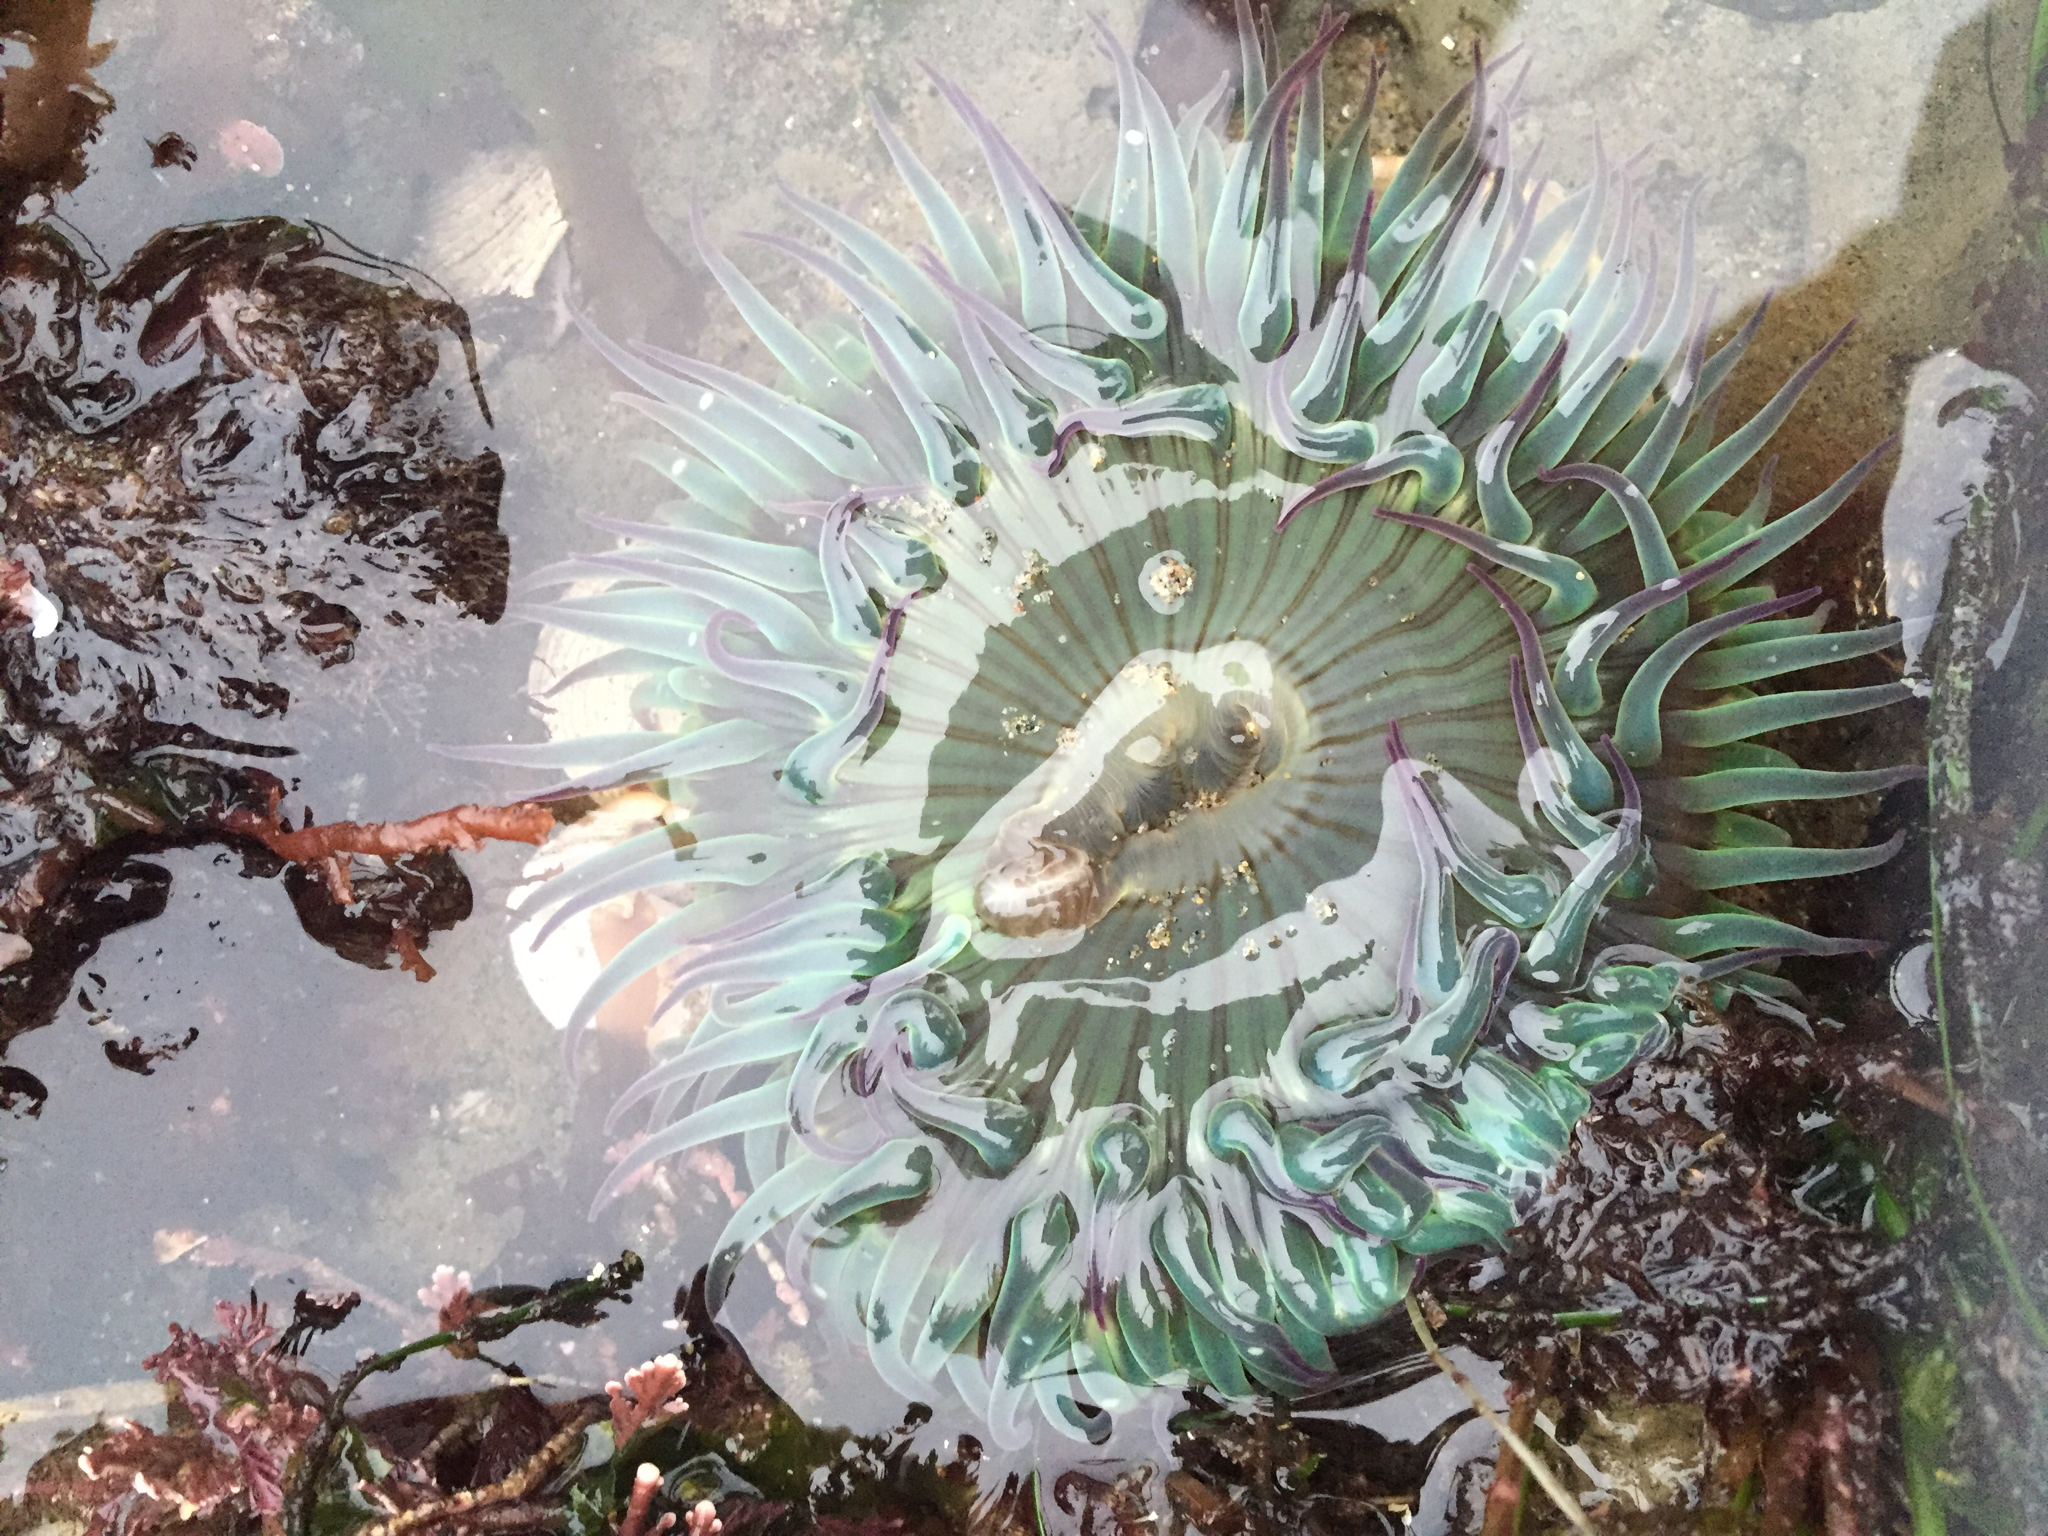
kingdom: Animalia
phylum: Cnidaria
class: Anthozoa
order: Actiniaria
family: Actiniidae
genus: Anthopleura
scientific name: Anthopleura sola
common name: Sun anemone
